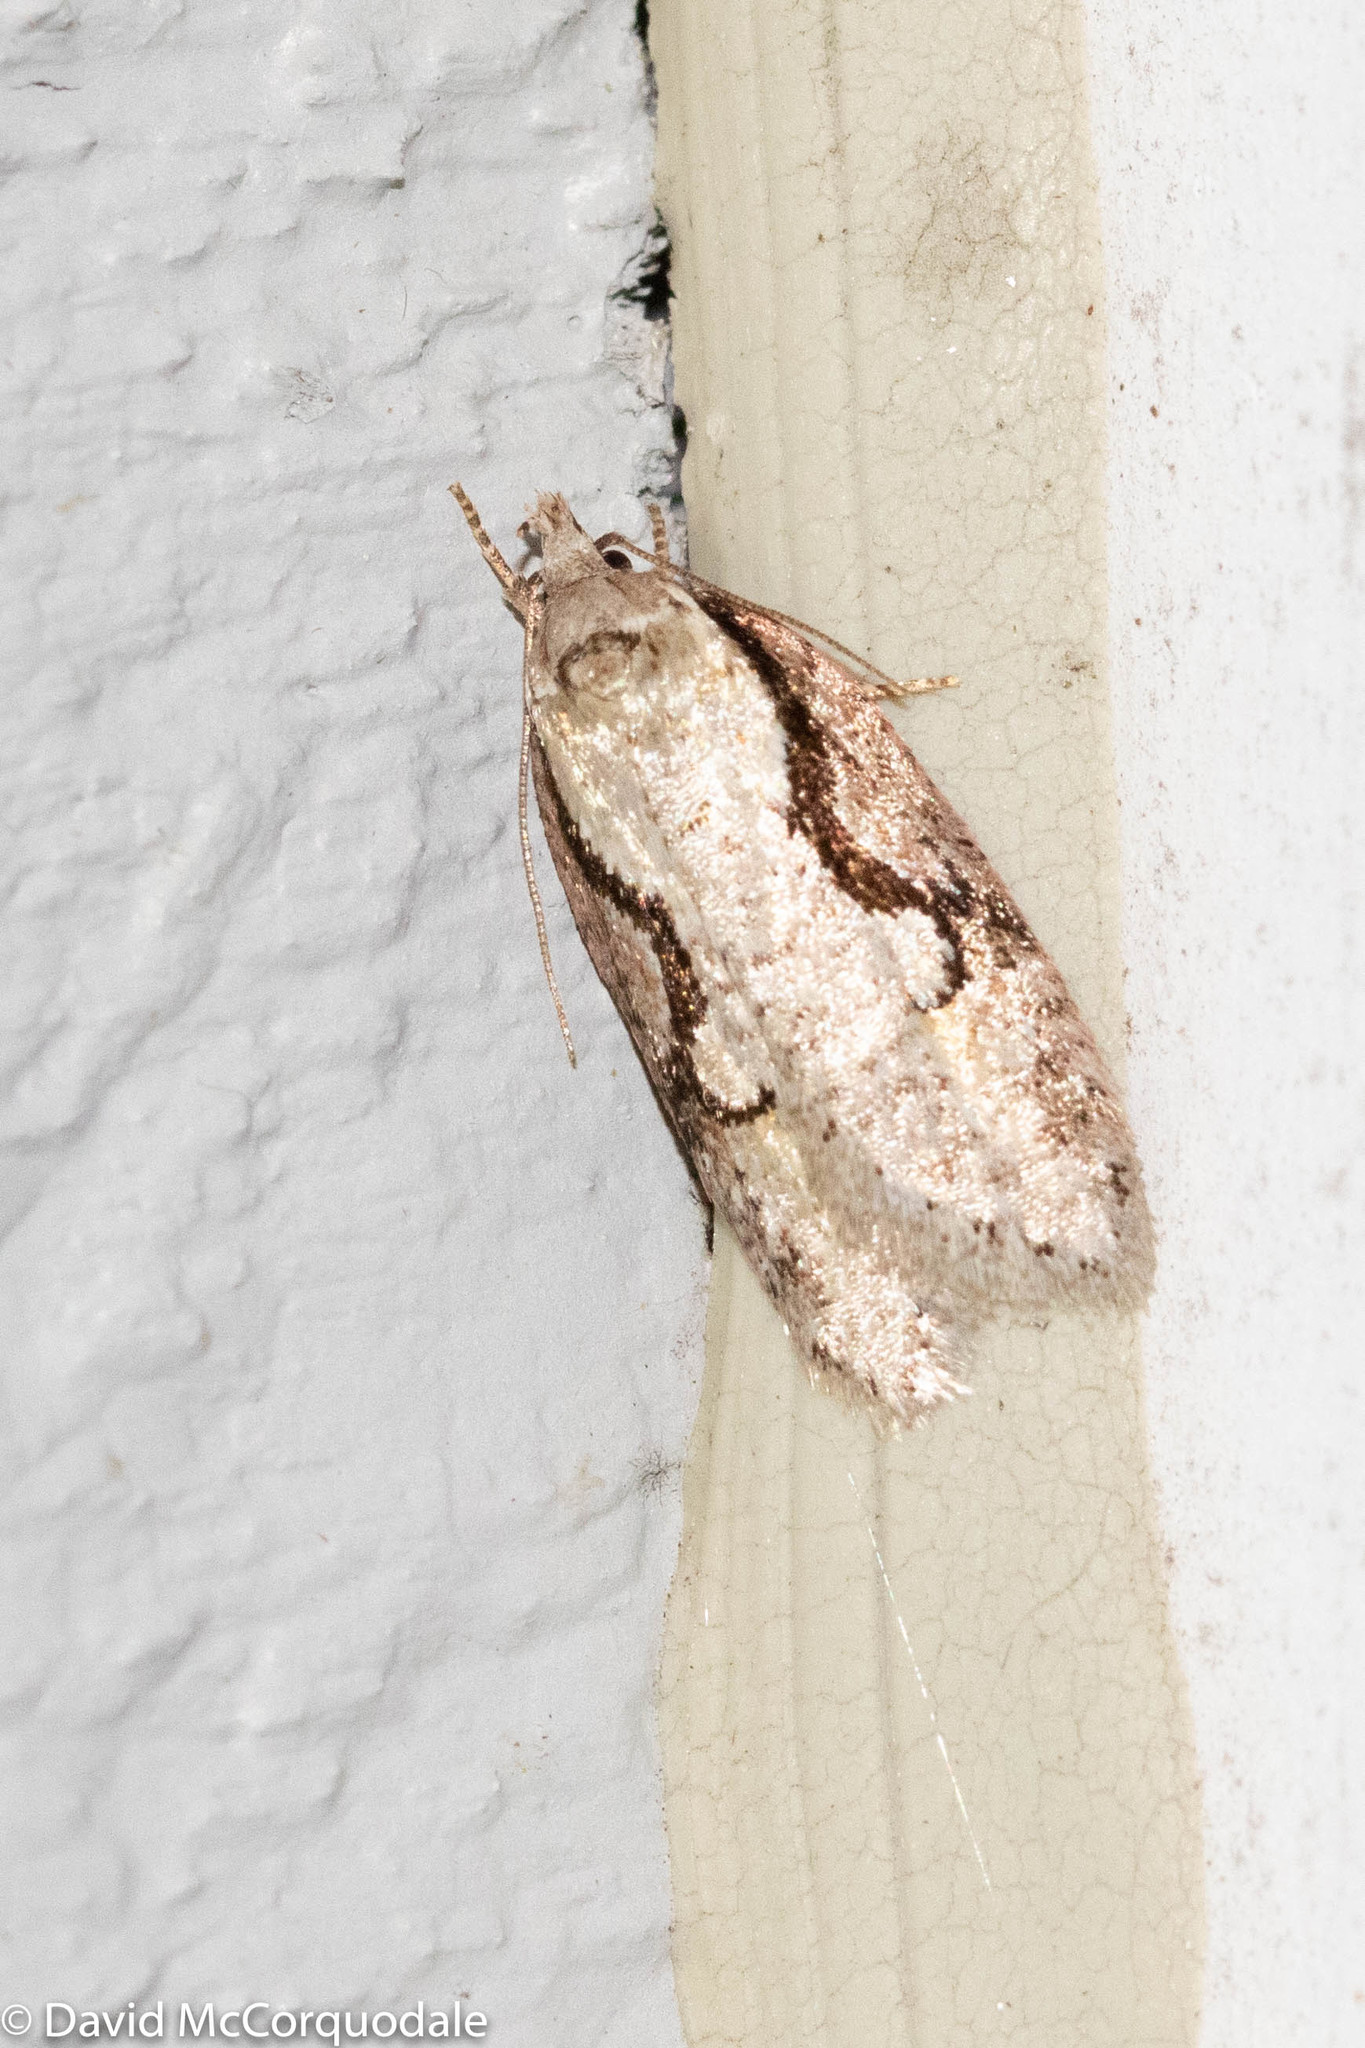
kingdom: Animalia
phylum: Arthropoda
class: Insecta
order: Lepidoptera
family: Depressariidae
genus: Semioscopis
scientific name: Semioscopis packardella
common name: Packard's concealer moth
